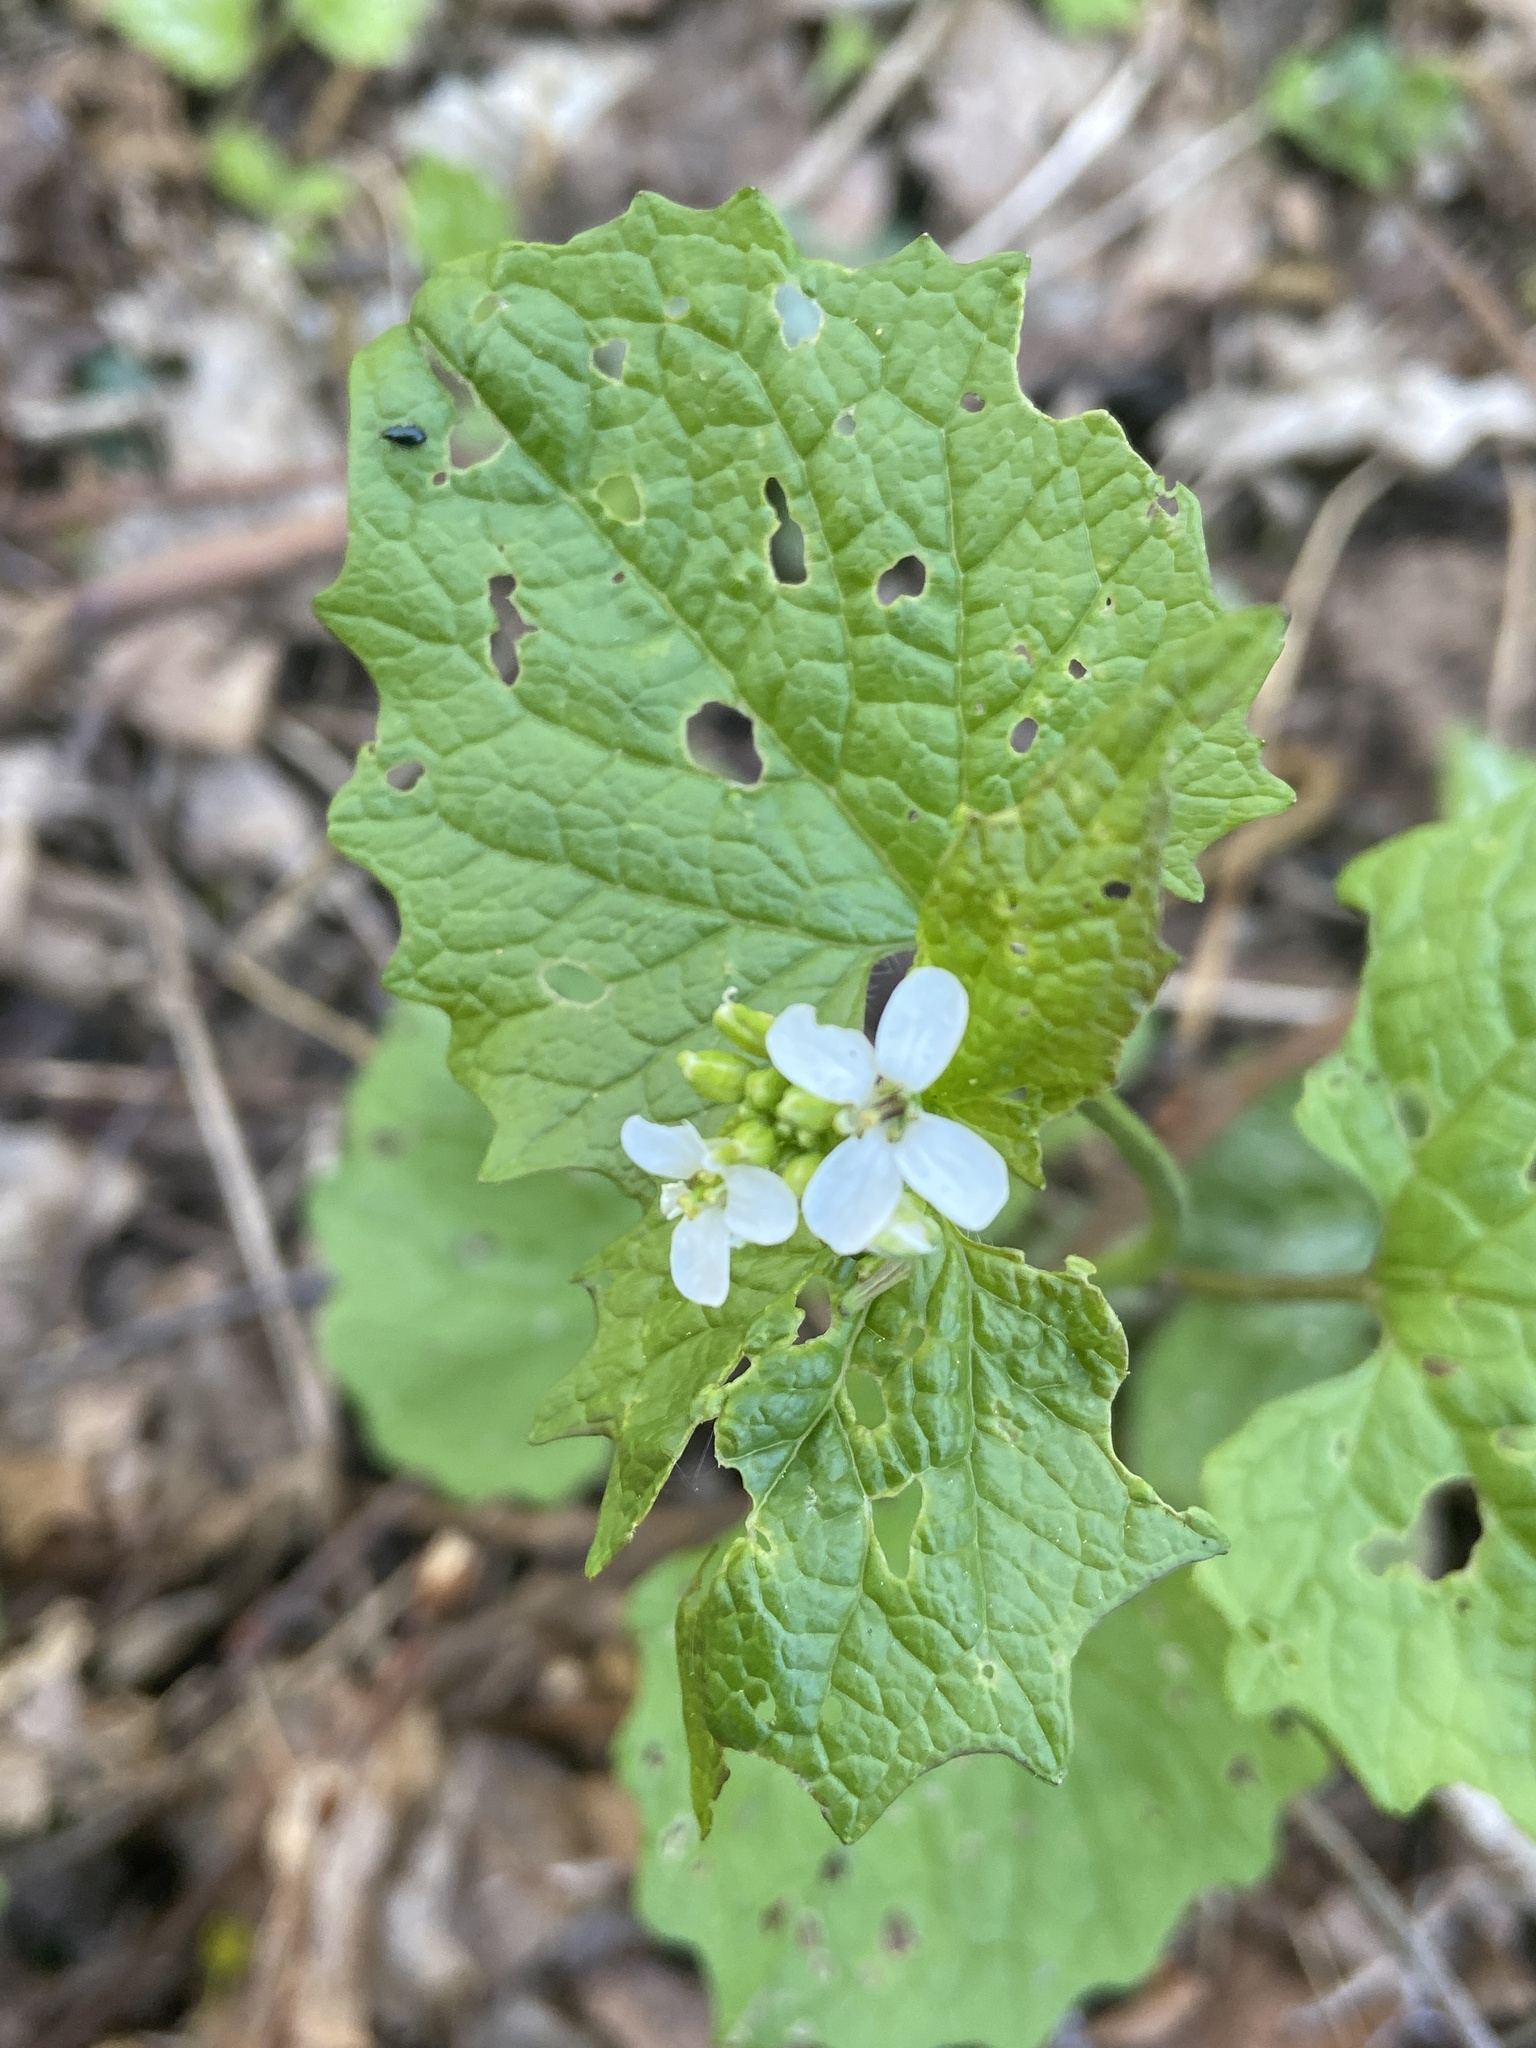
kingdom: Plantae
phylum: Tracheophyta
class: Magnoliopsida
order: Brassicales
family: Brassicaceae
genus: Alliaria
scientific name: Alliaria petiolata
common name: Garlic mustard
